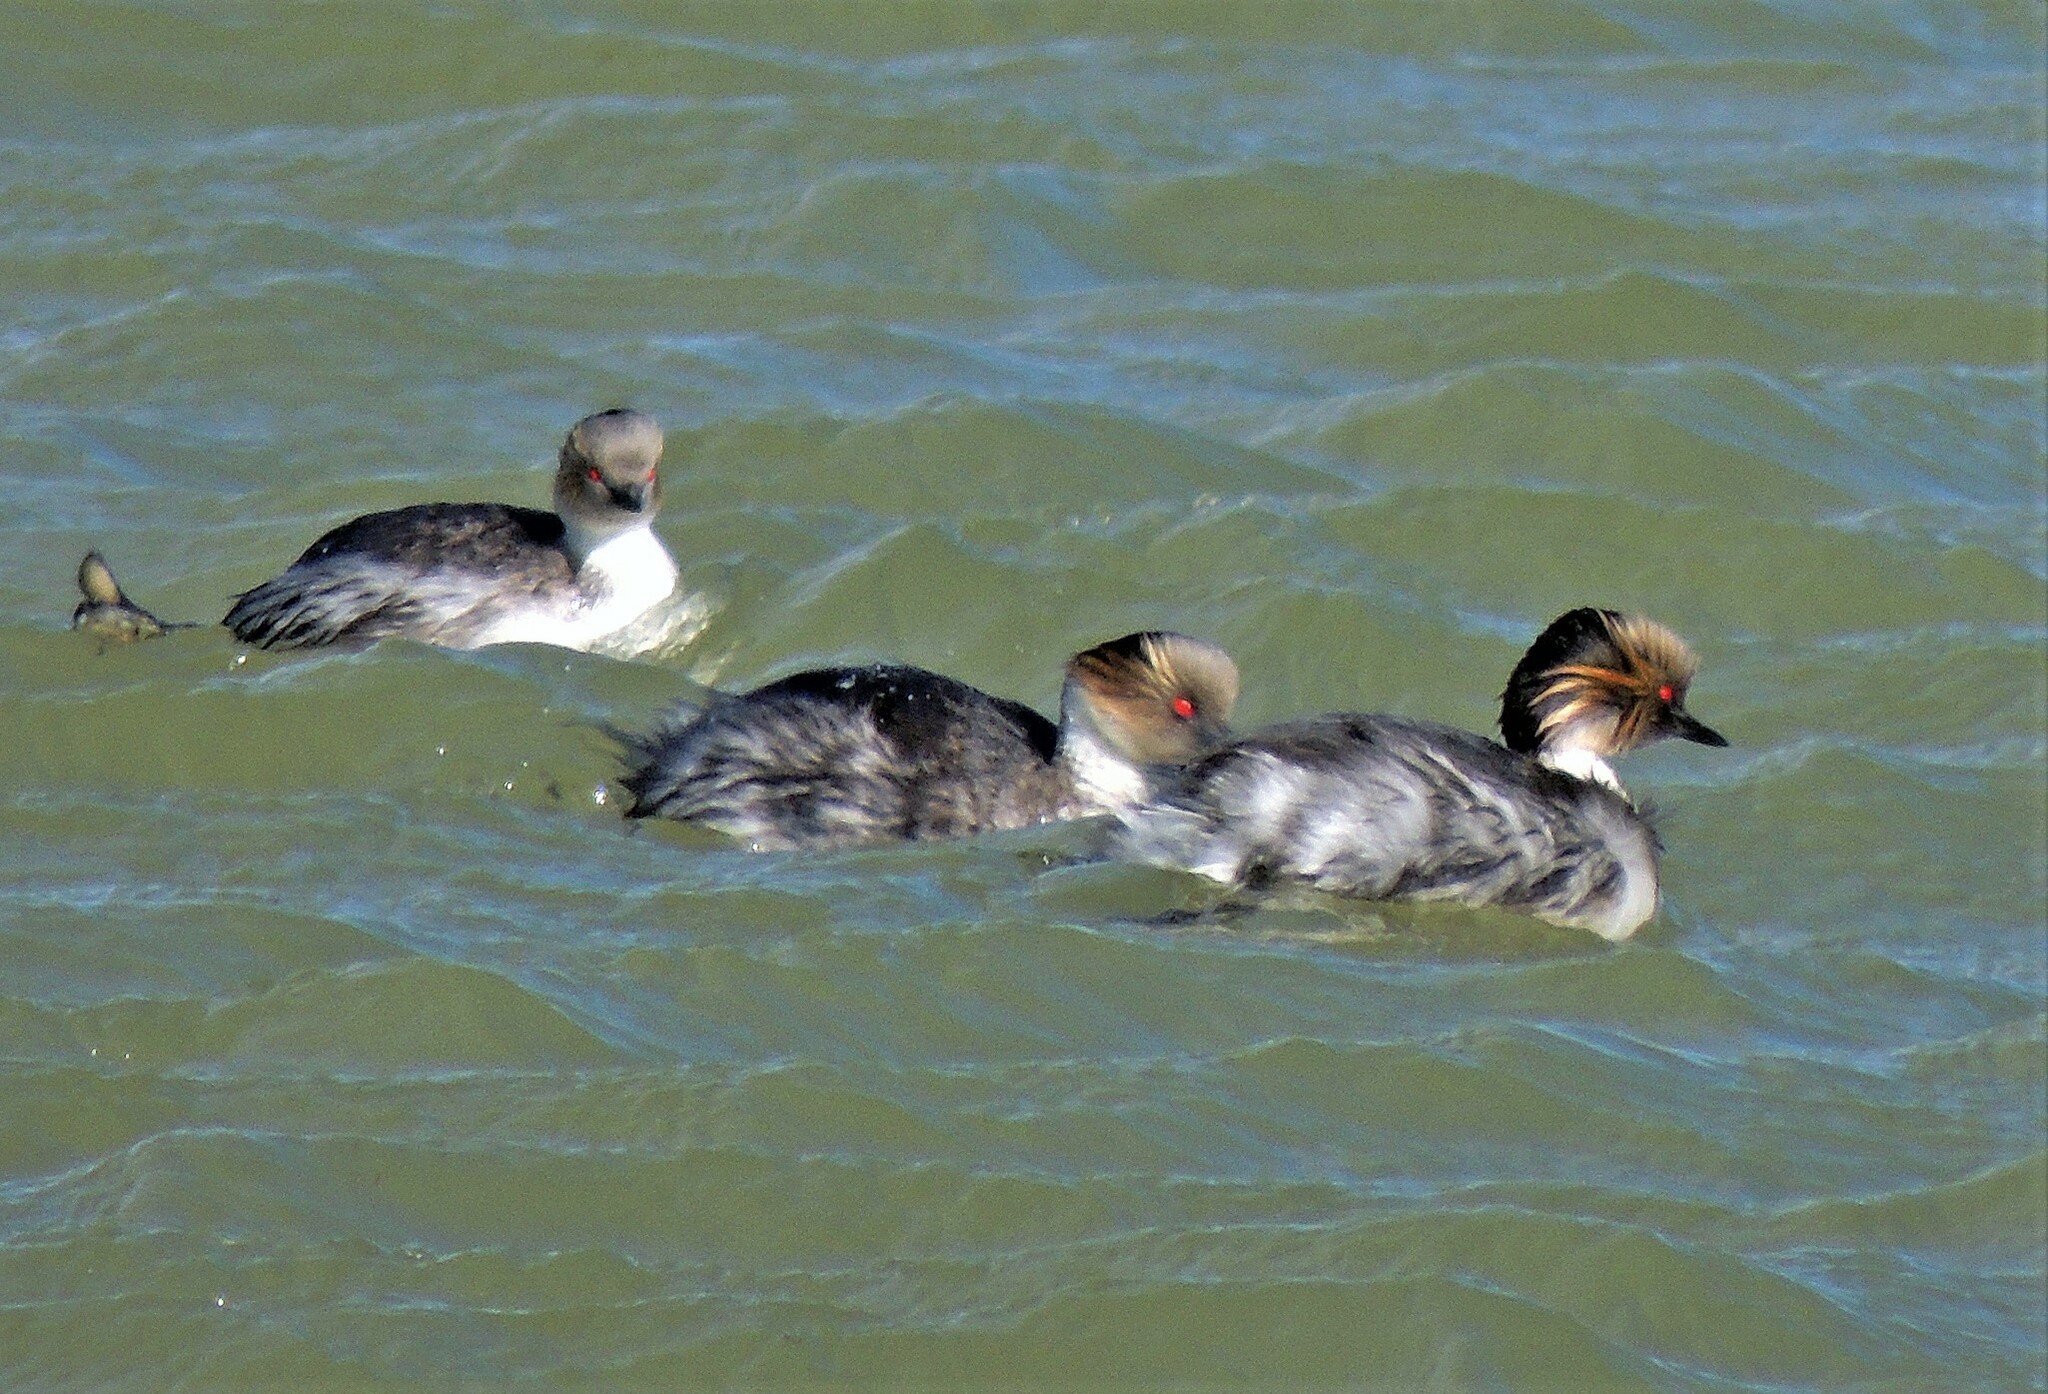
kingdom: Animalia
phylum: Chordata
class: Aves
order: Podicipediformes
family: Podicipedidae
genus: Podiceps
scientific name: Podiceps occipitalis
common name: Silvery grebe
